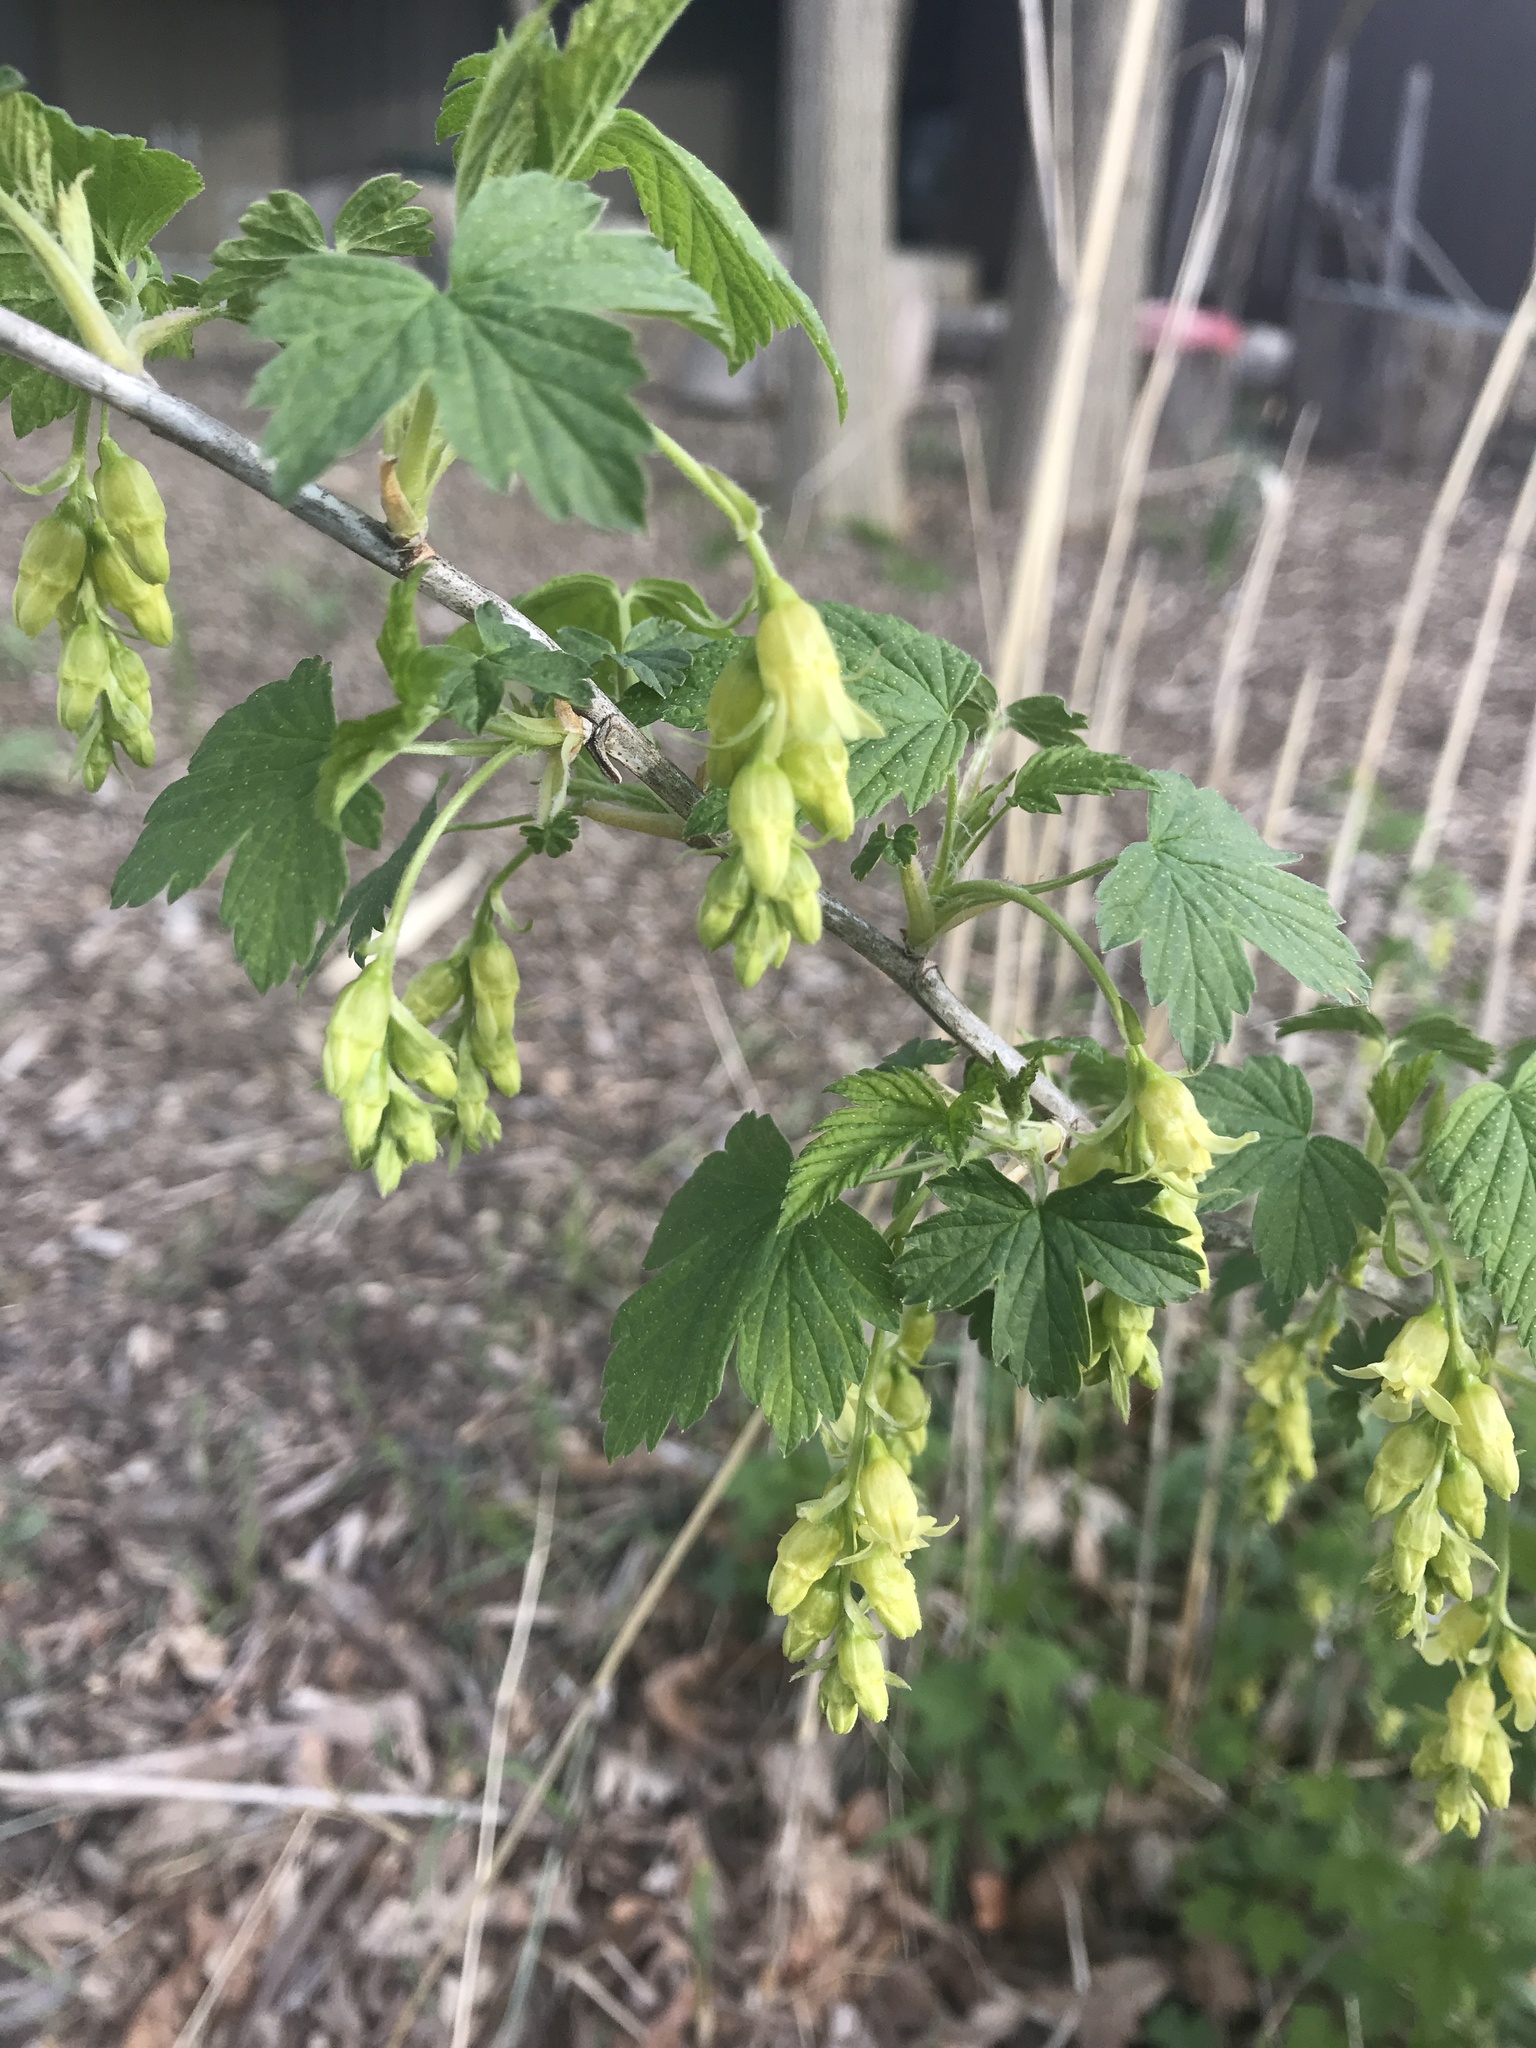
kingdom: Plantae
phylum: Tracheophyta
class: Magnoliopsida
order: Saxifragales
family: Grossulariaceae
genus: Ribes
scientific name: Ribes americanum
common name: American black currant
